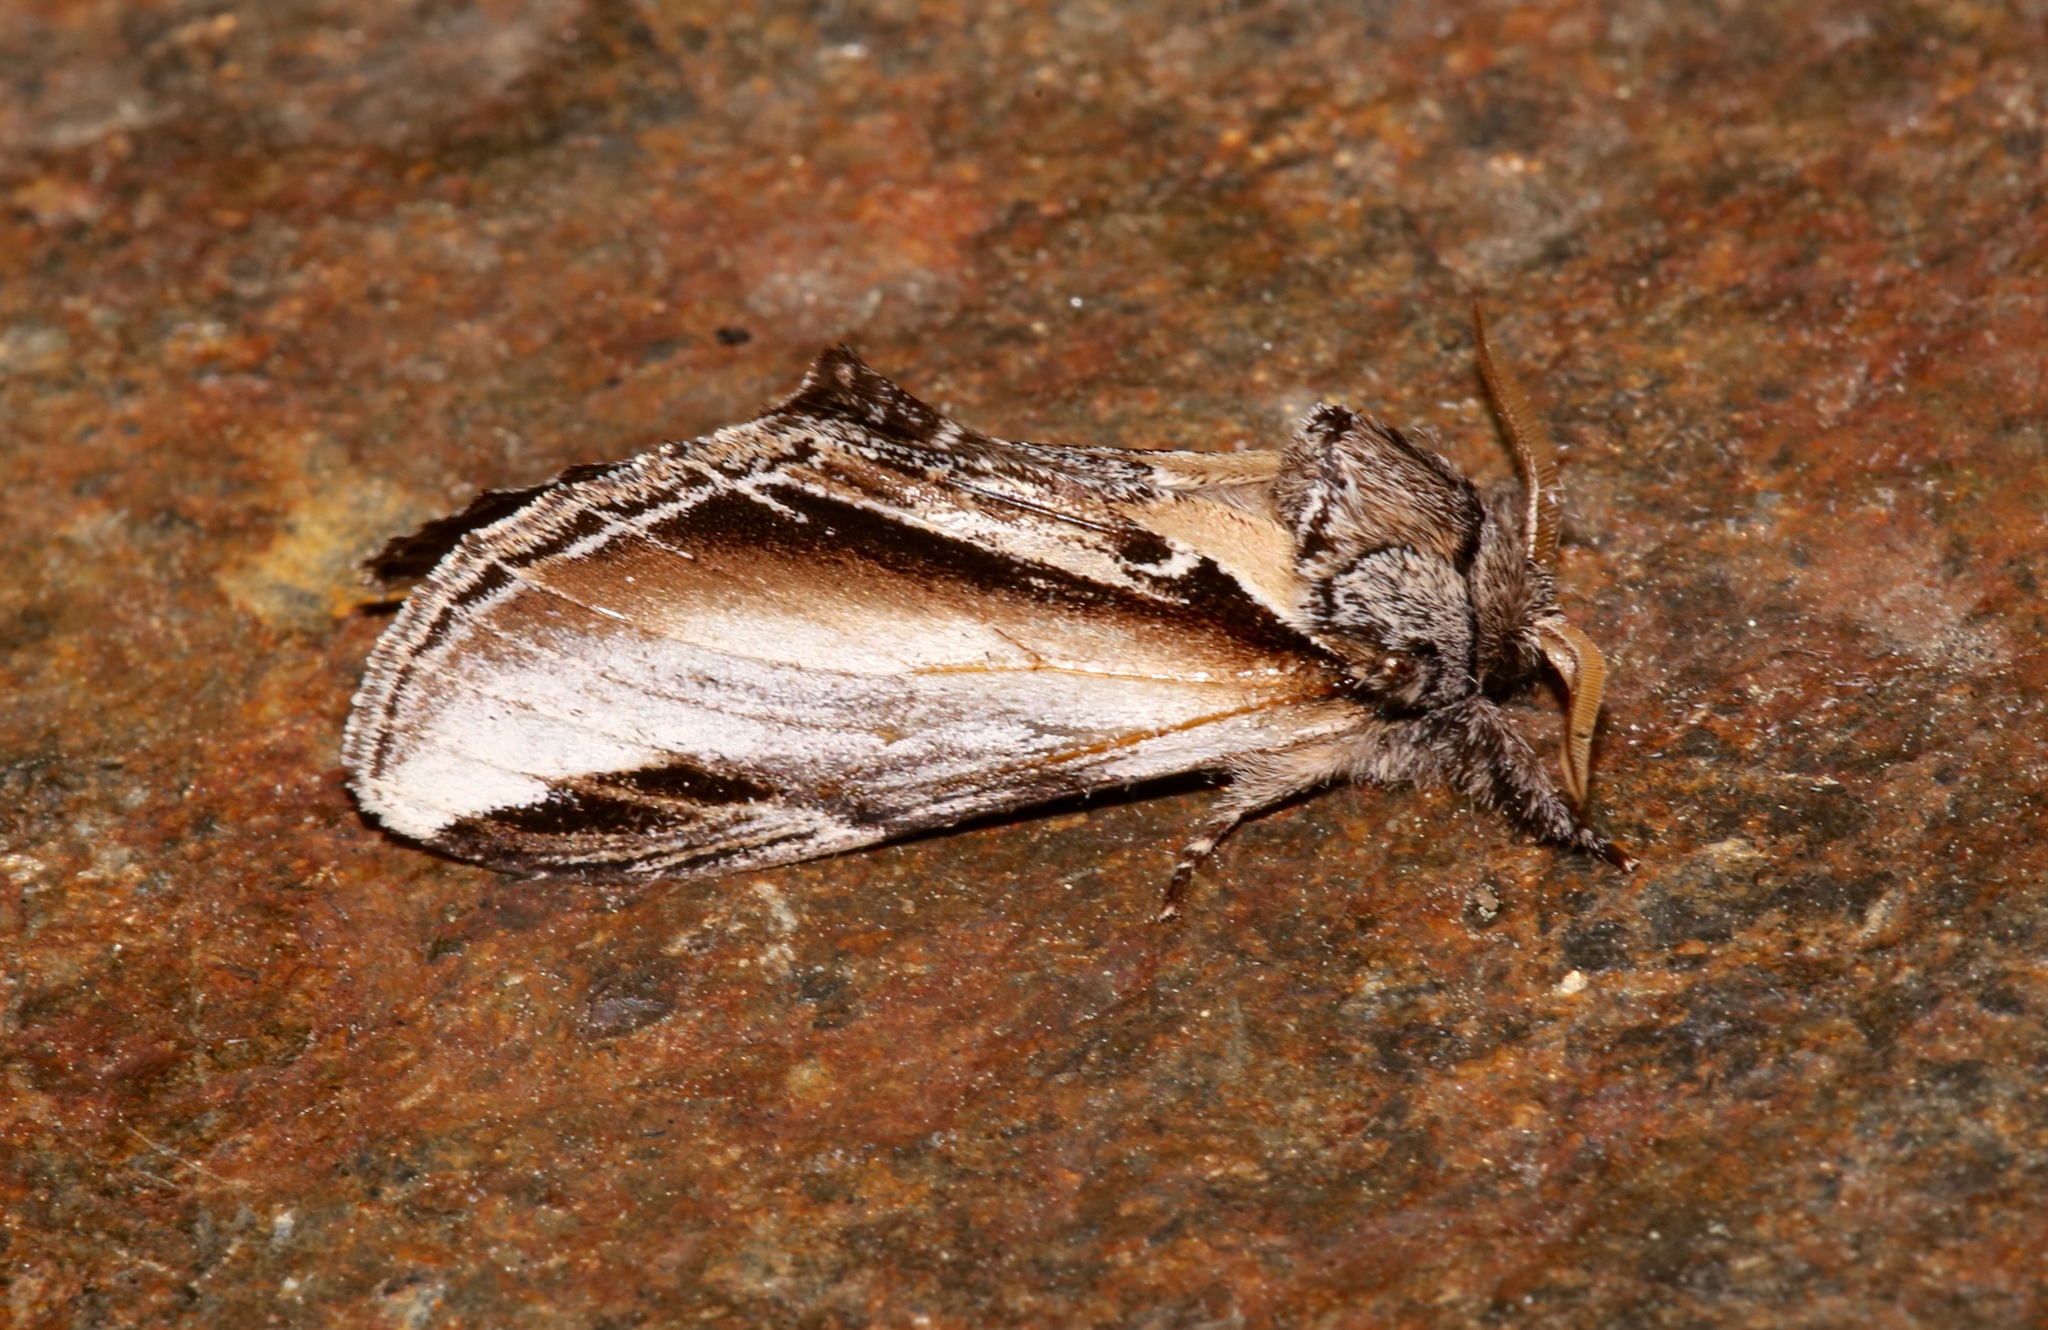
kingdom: Animalia
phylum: Arthropoda
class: Insecta
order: Lepidoptera
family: Notodontidae
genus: Pheosia
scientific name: Pheosia rimosa
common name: Black-rimmed prominent
